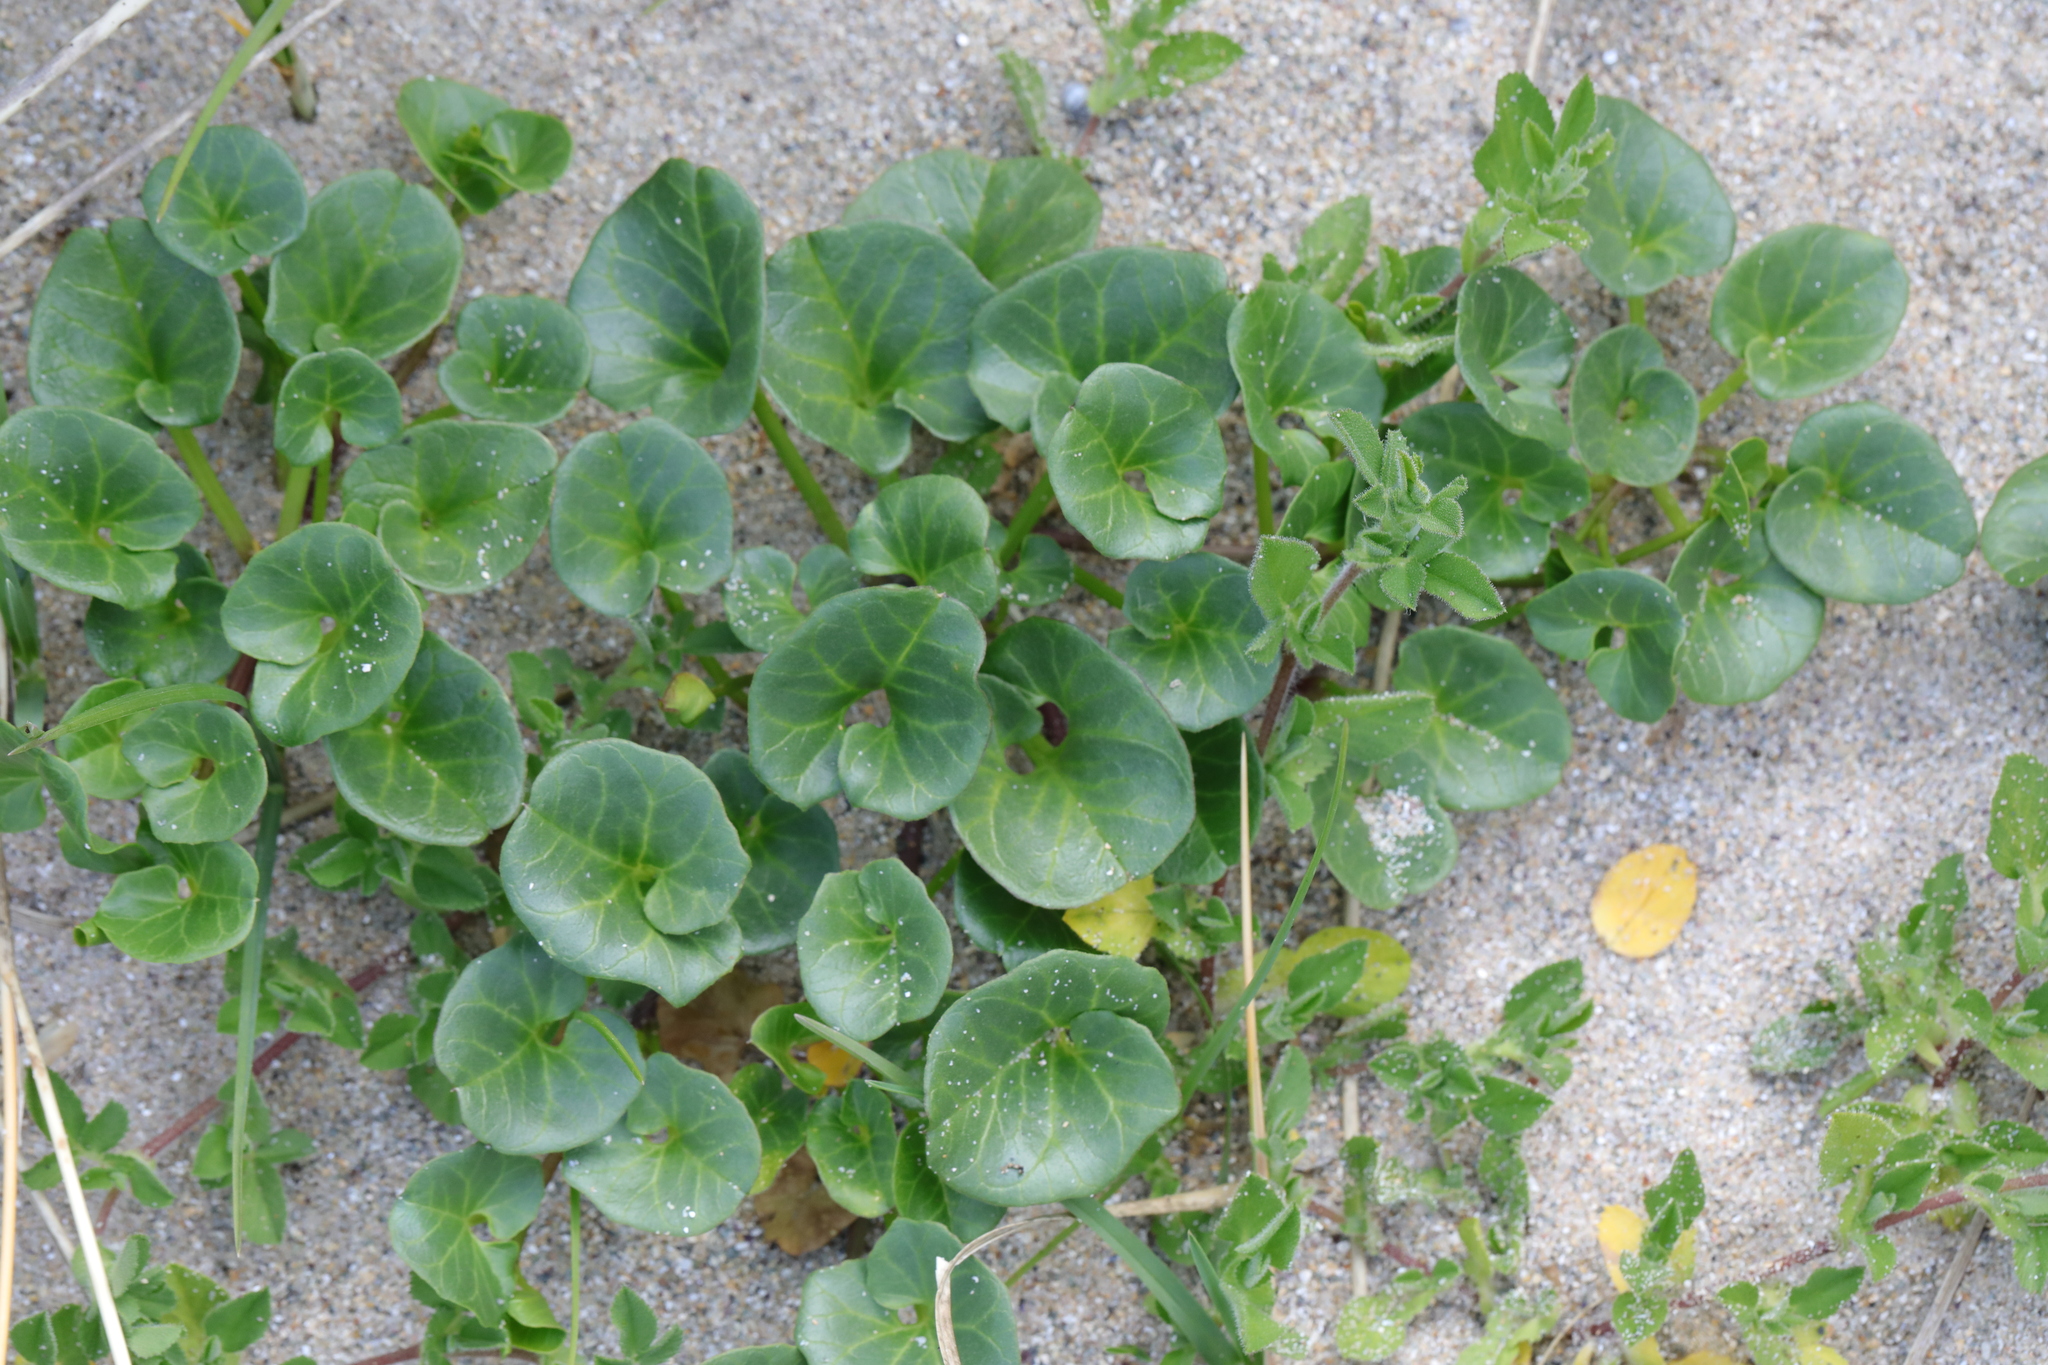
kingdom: Plantae
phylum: Tracheophyta
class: Magnoliopsida
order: Solanales
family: Convolvulaceae
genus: Calystegia
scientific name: Calystegia soldanella
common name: Sea bindweed
